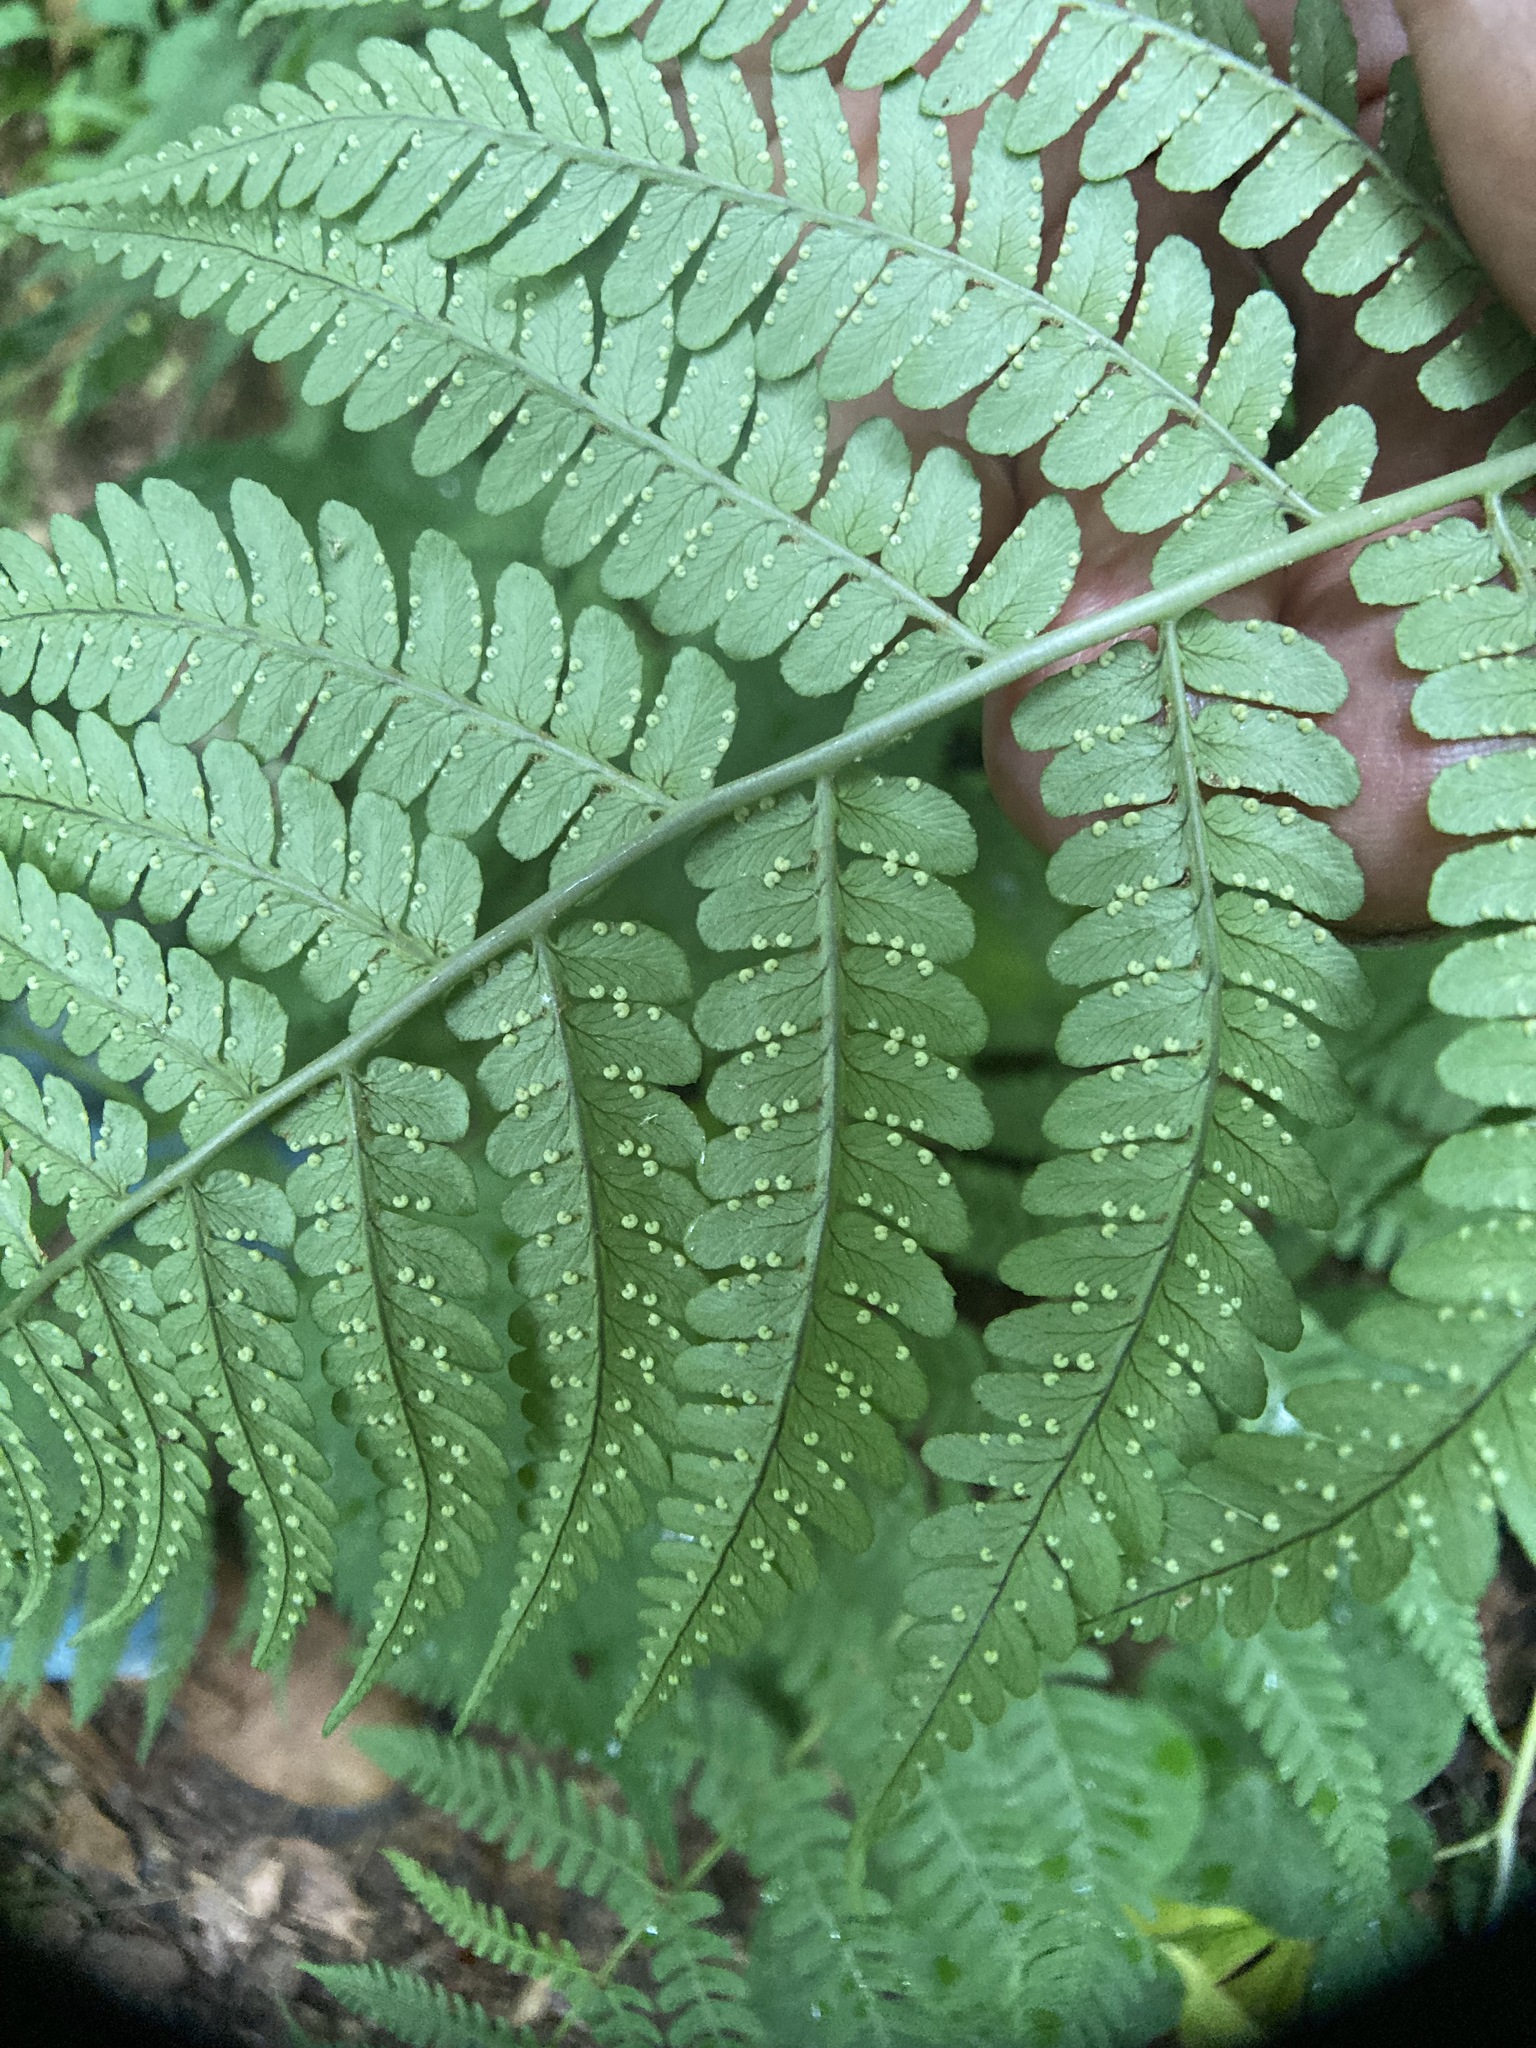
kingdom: Plantae
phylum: Tracheophyta
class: Polypodiopsida
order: Polypodiales
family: Dryopteridaceae
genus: Dryopteris
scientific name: Dryopteris marginalis
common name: Marginal wood fern
